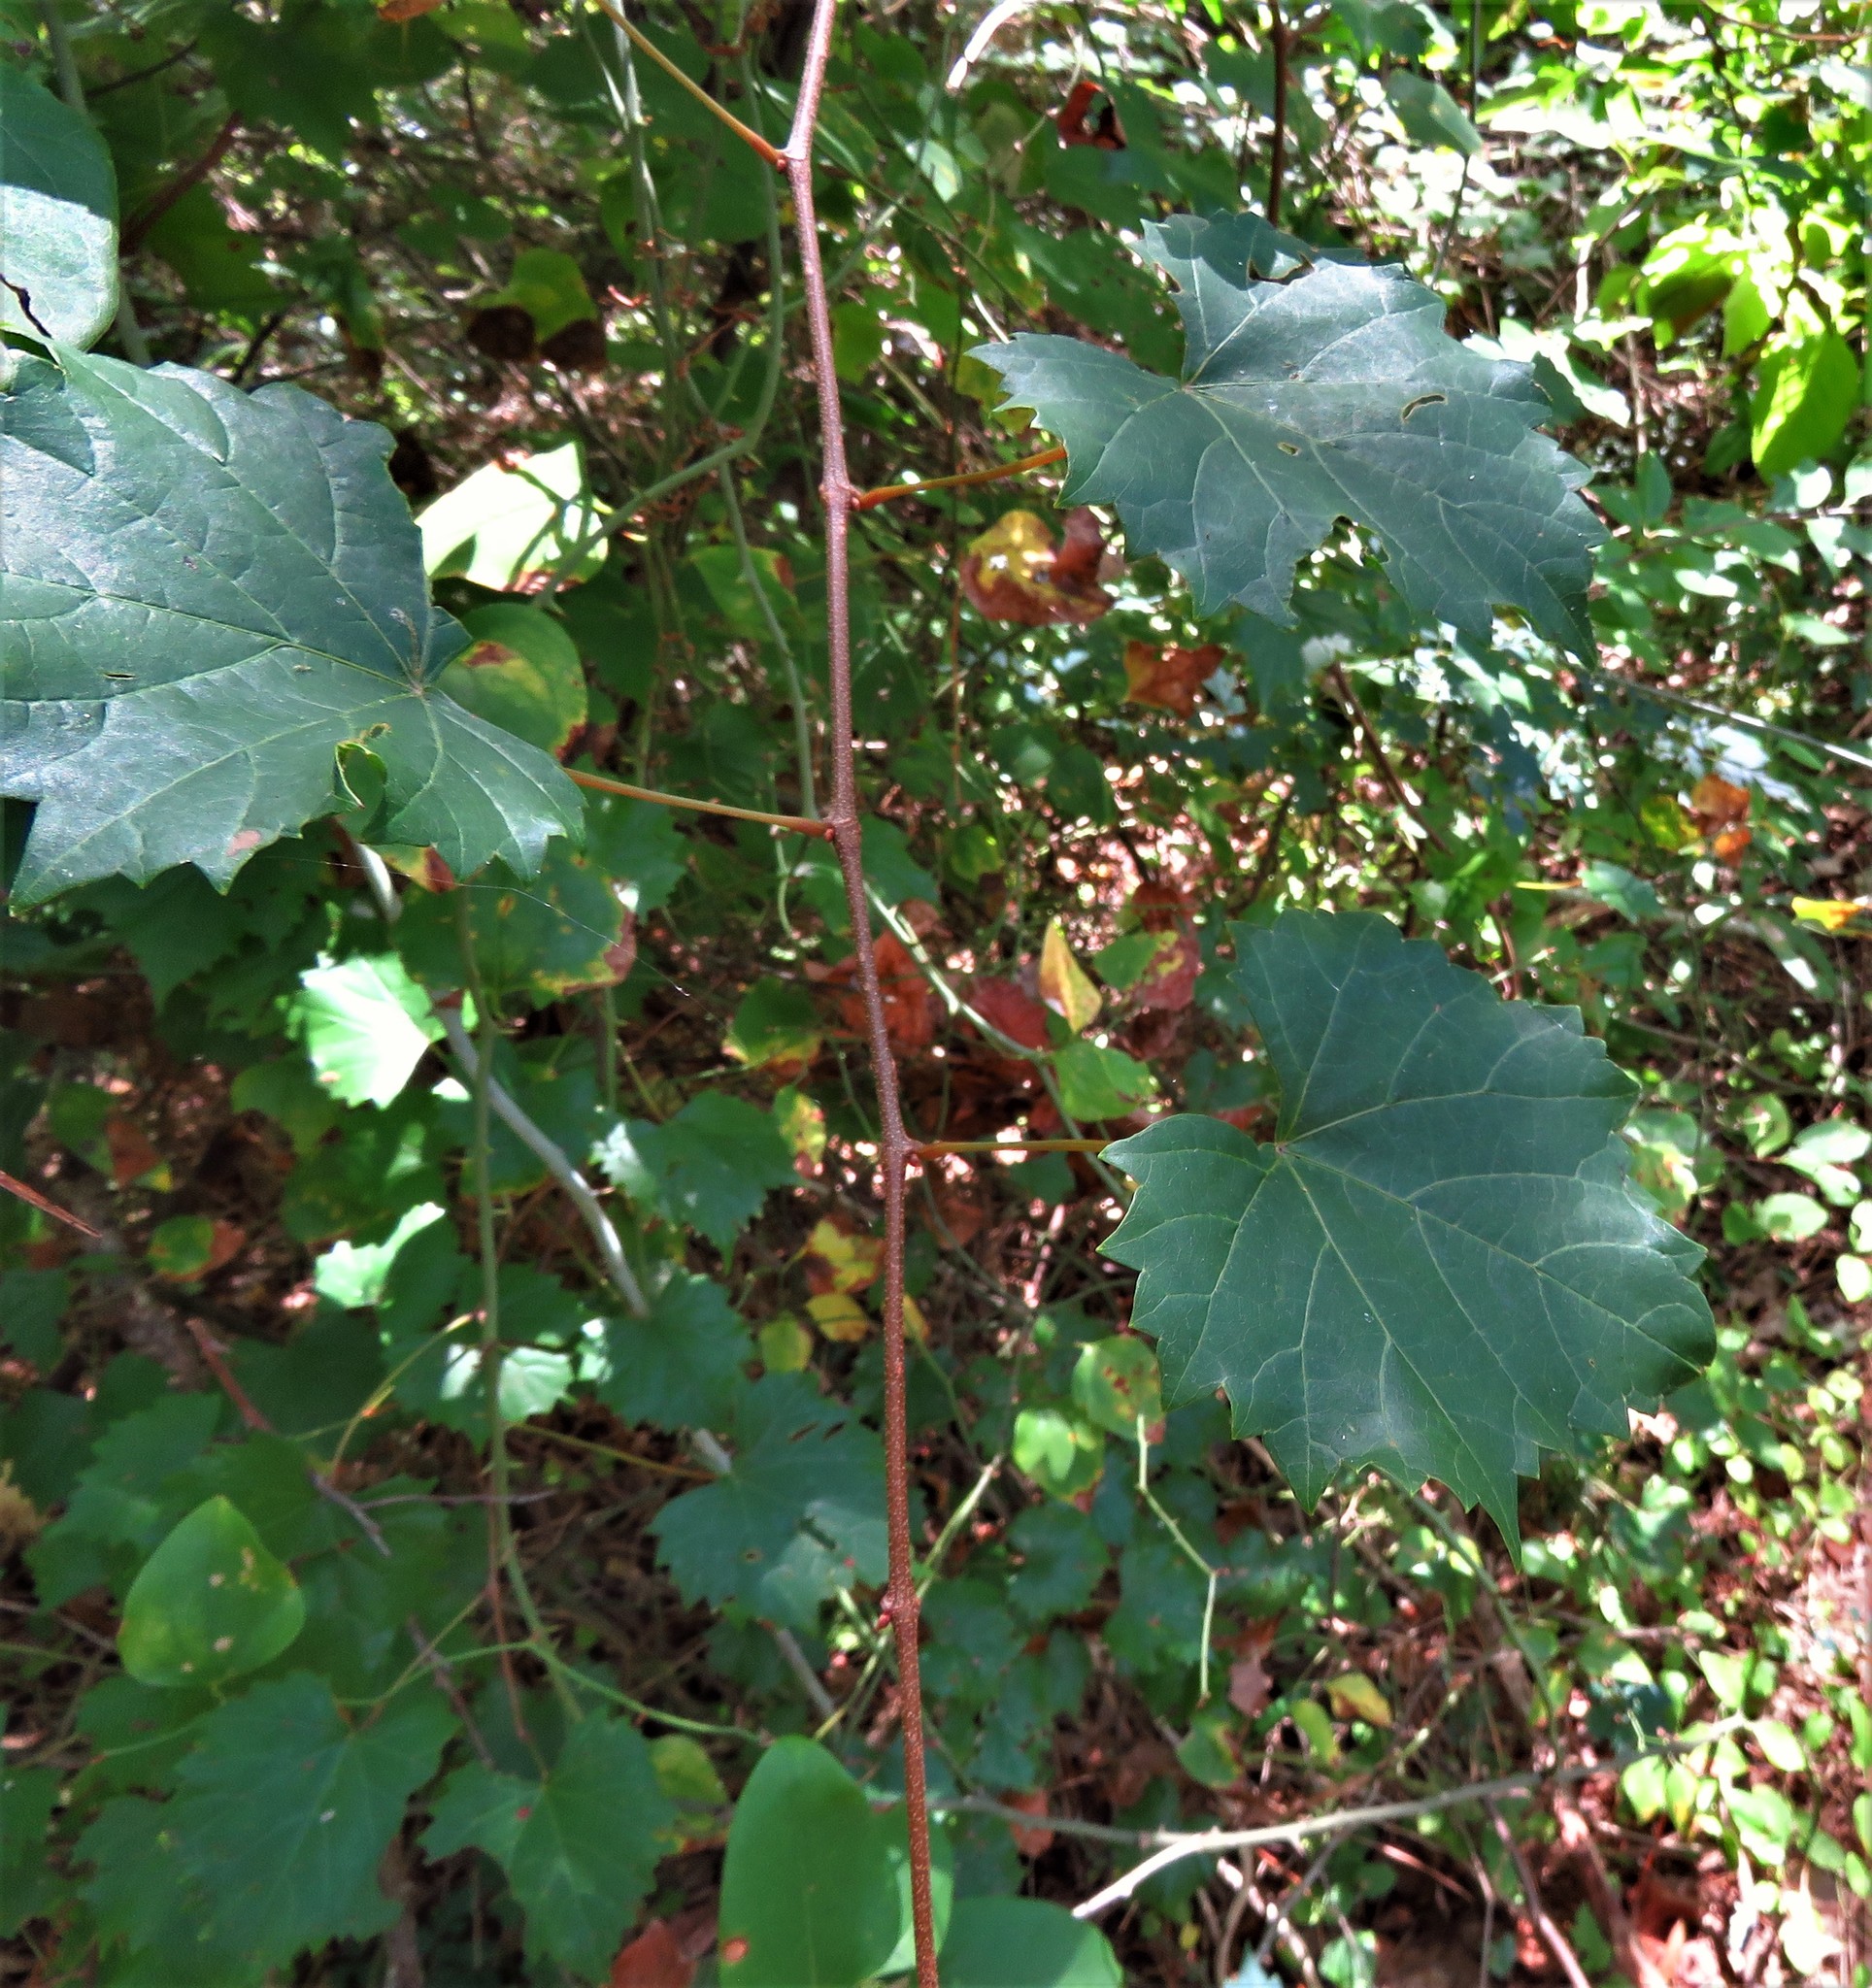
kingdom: Plantae
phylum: Tracheophyta
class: Magnoliopsida
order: Vitales
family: Vitaceae
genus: Vitis
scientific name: Vitis rotundifolia
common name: Muscadine grape
